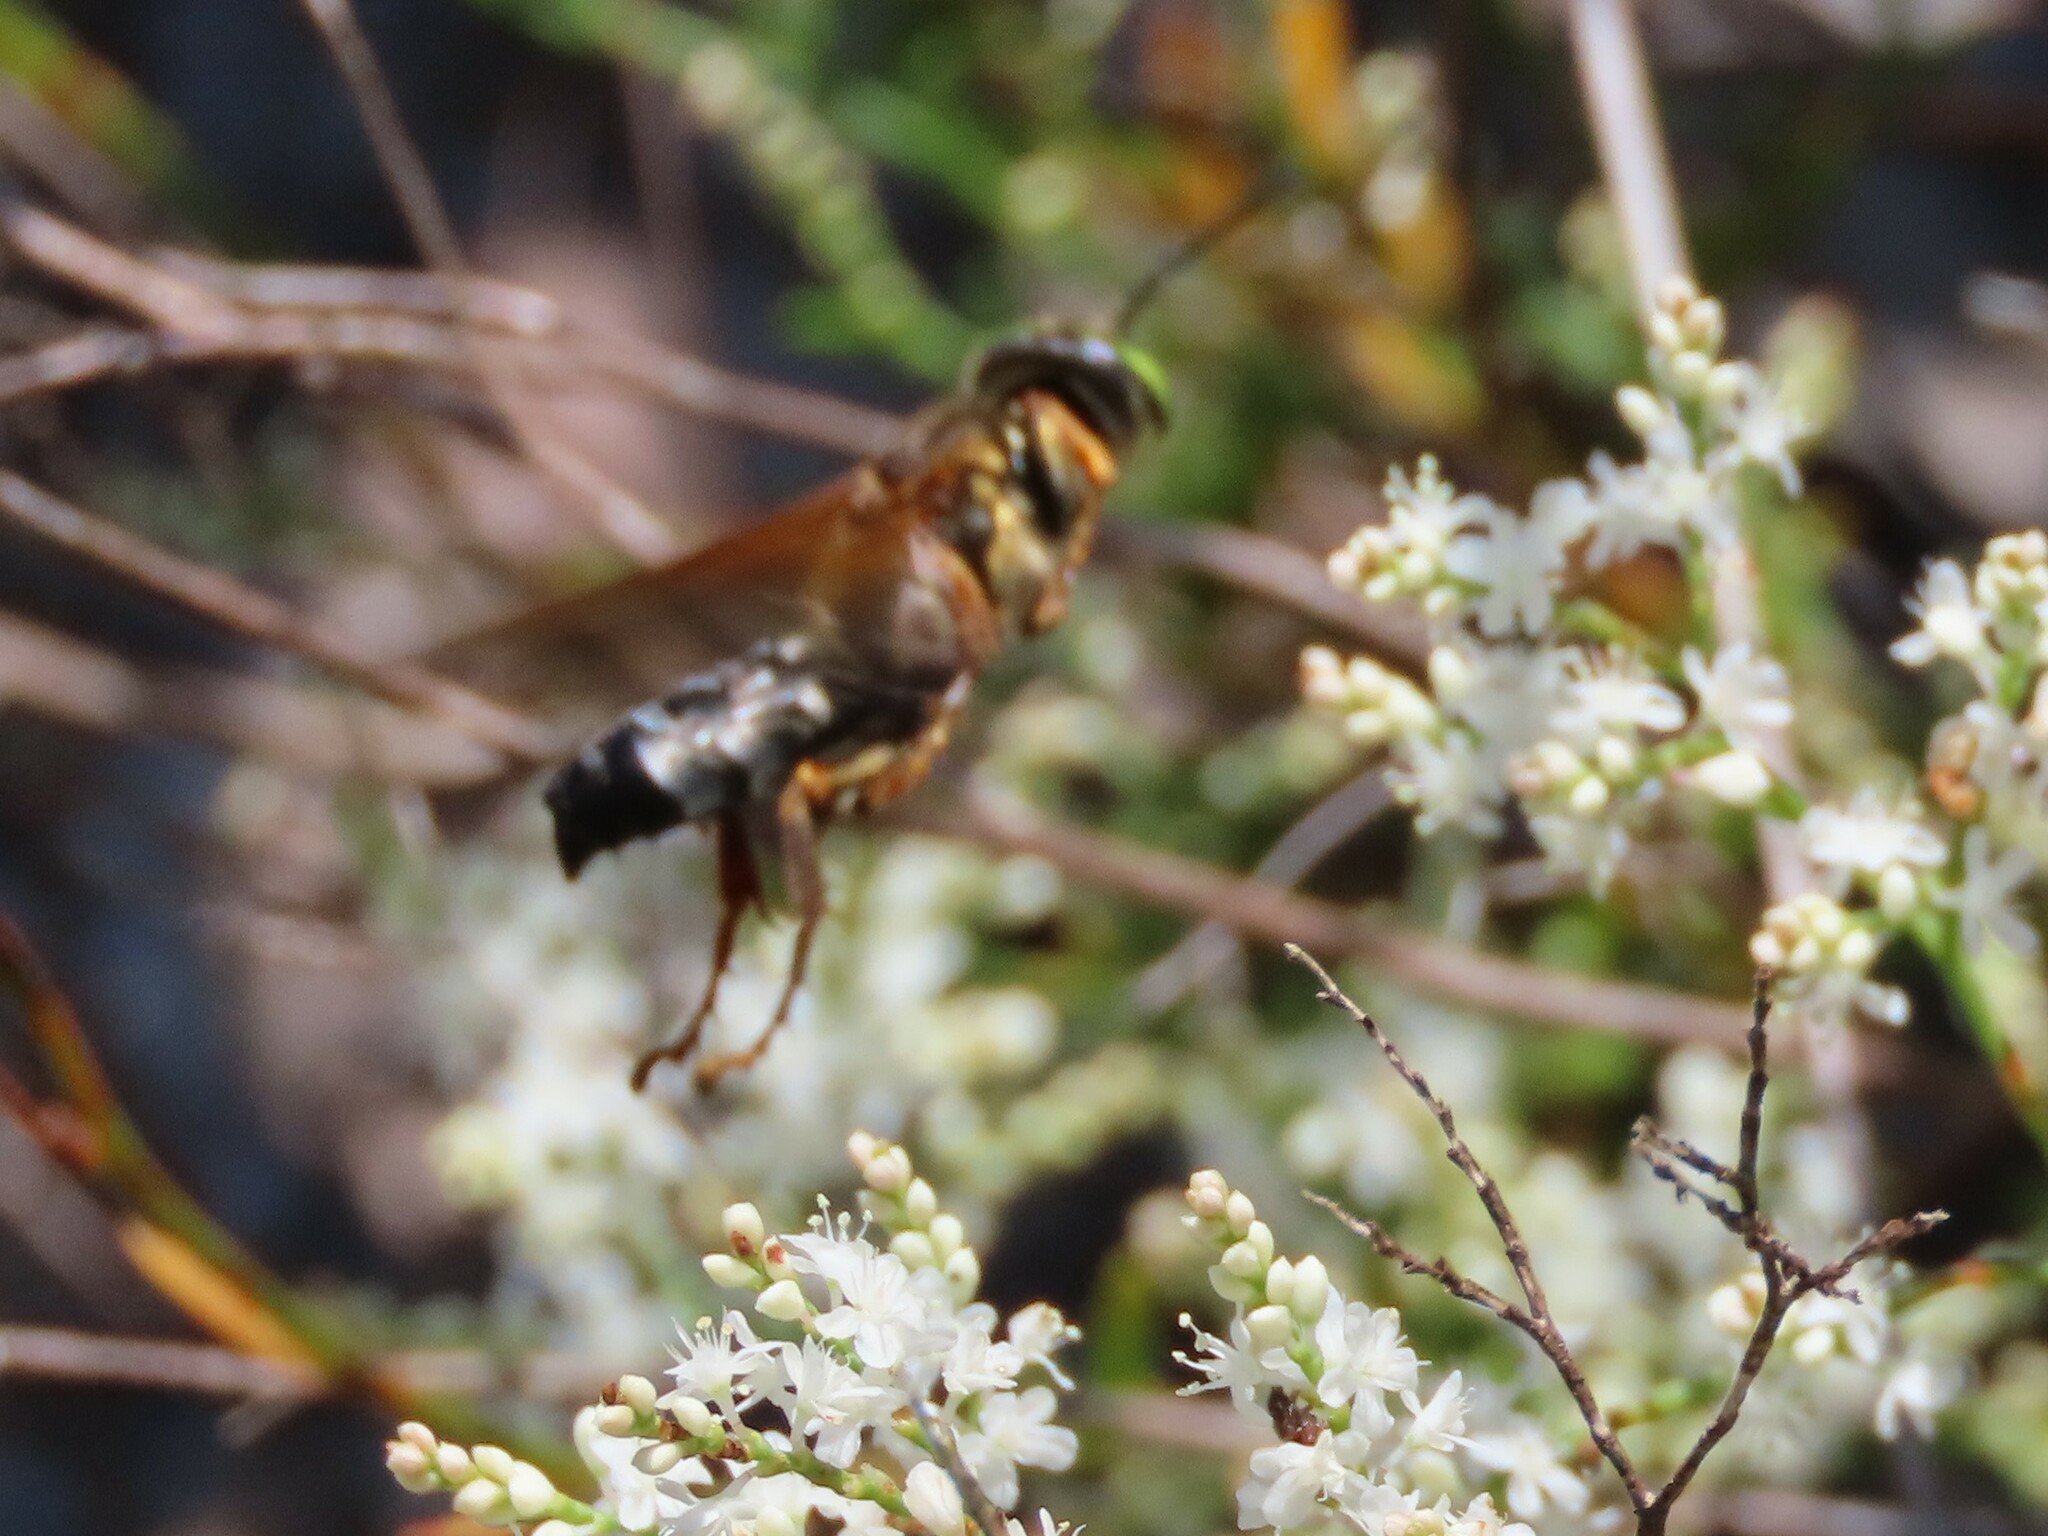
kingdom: Animalia
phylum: Arthropoda
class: Insecta
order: Hymenoptera
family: Crabronidae
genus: Tachytes
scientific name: Tachytes
